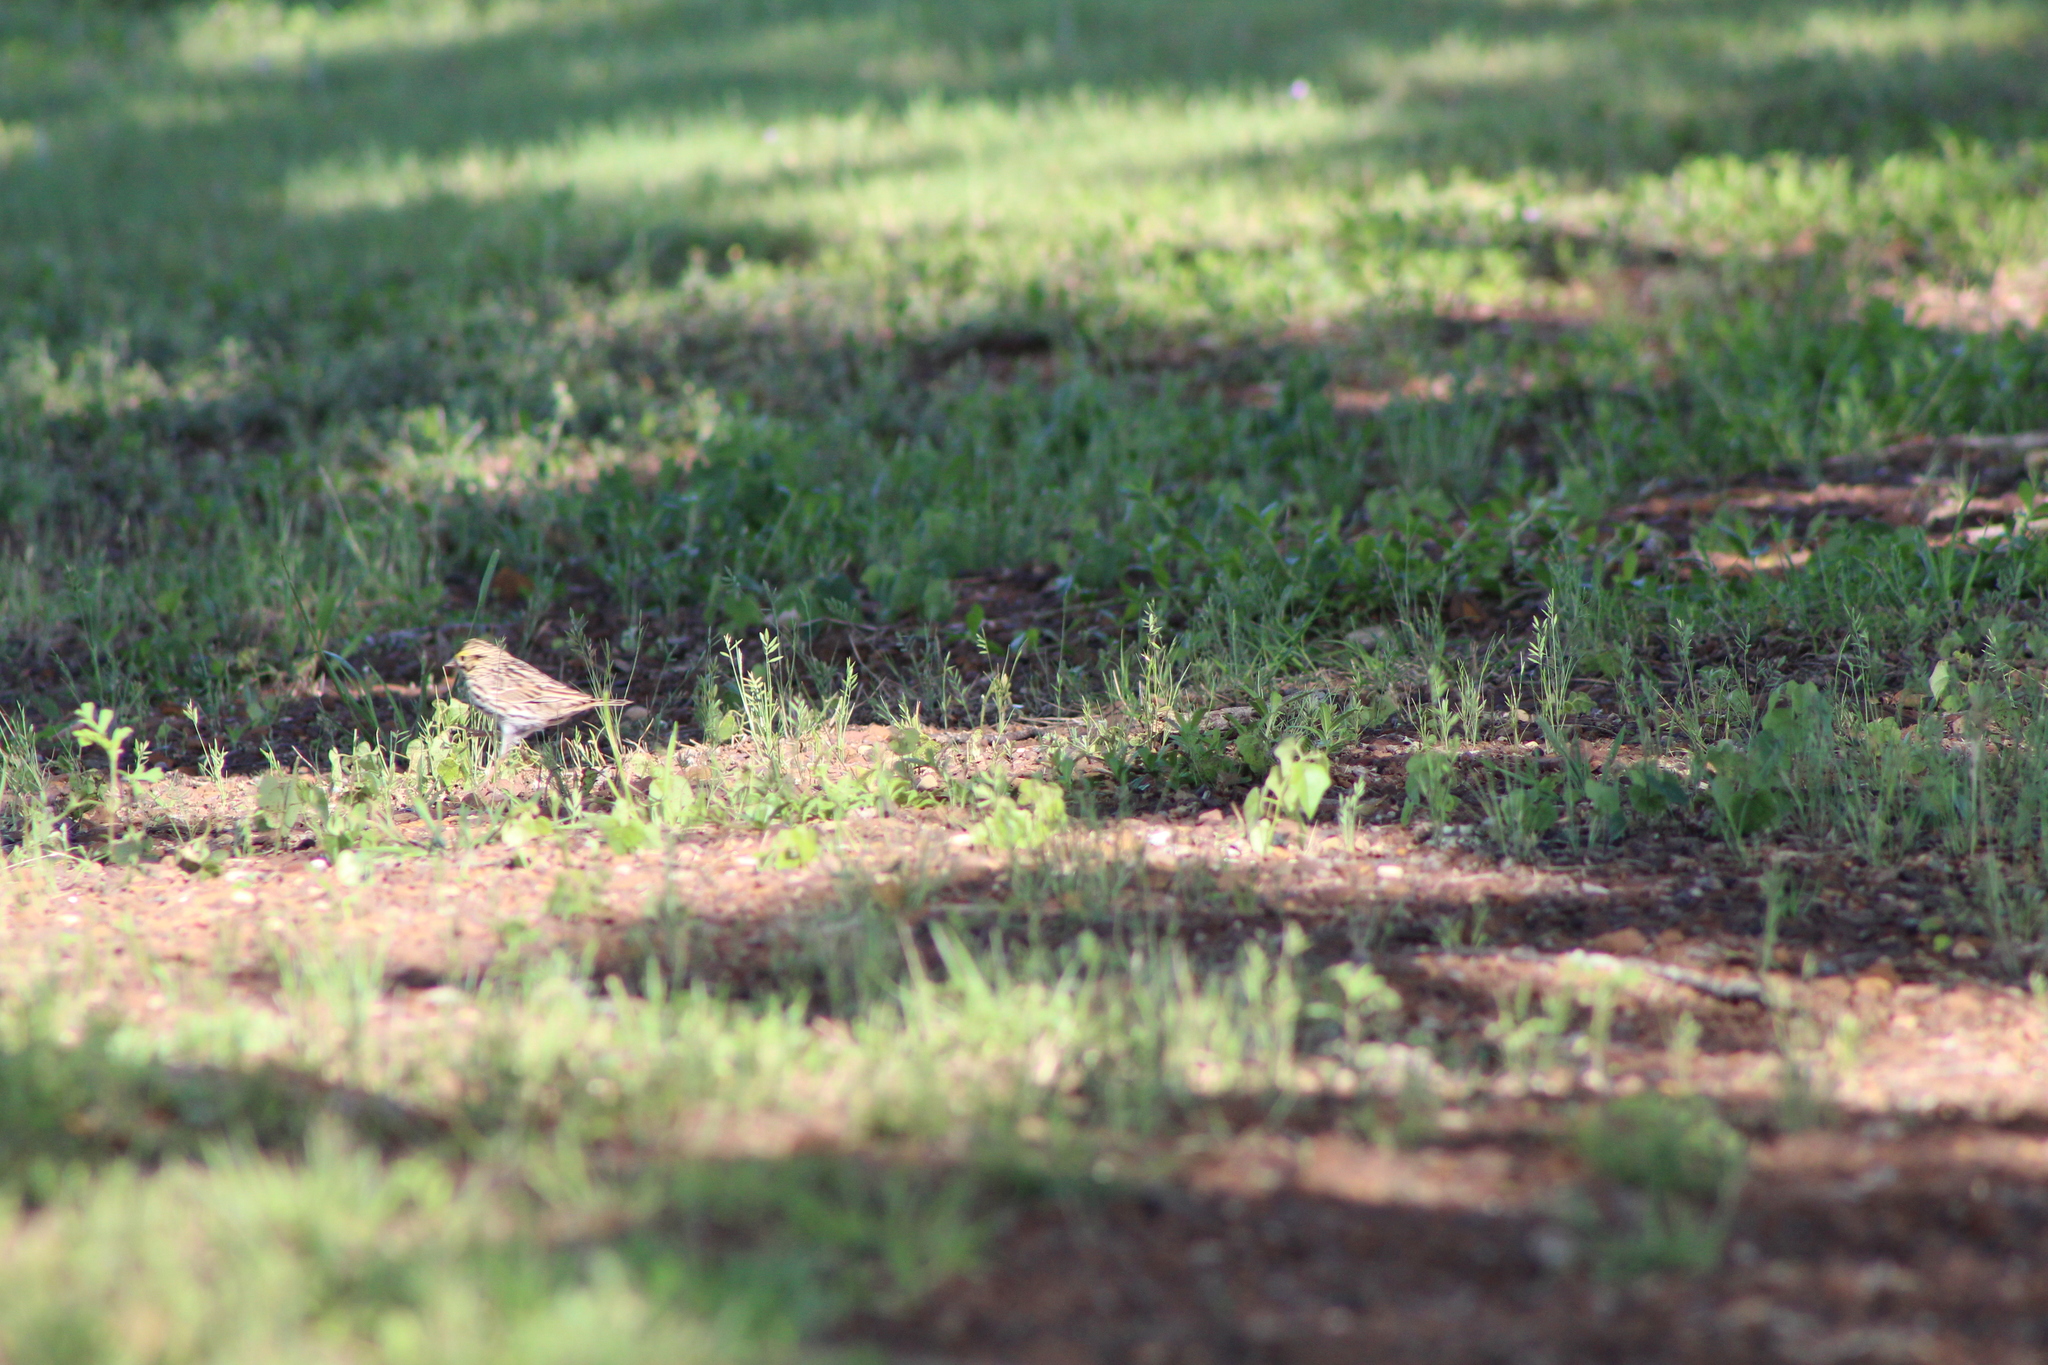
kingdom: Animalia
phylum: Chordata
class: Aves
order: Passeriformes
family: Passerellidae
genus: Passerculus
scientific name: Passerculus sandwichensis
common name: Savannah sparrow
